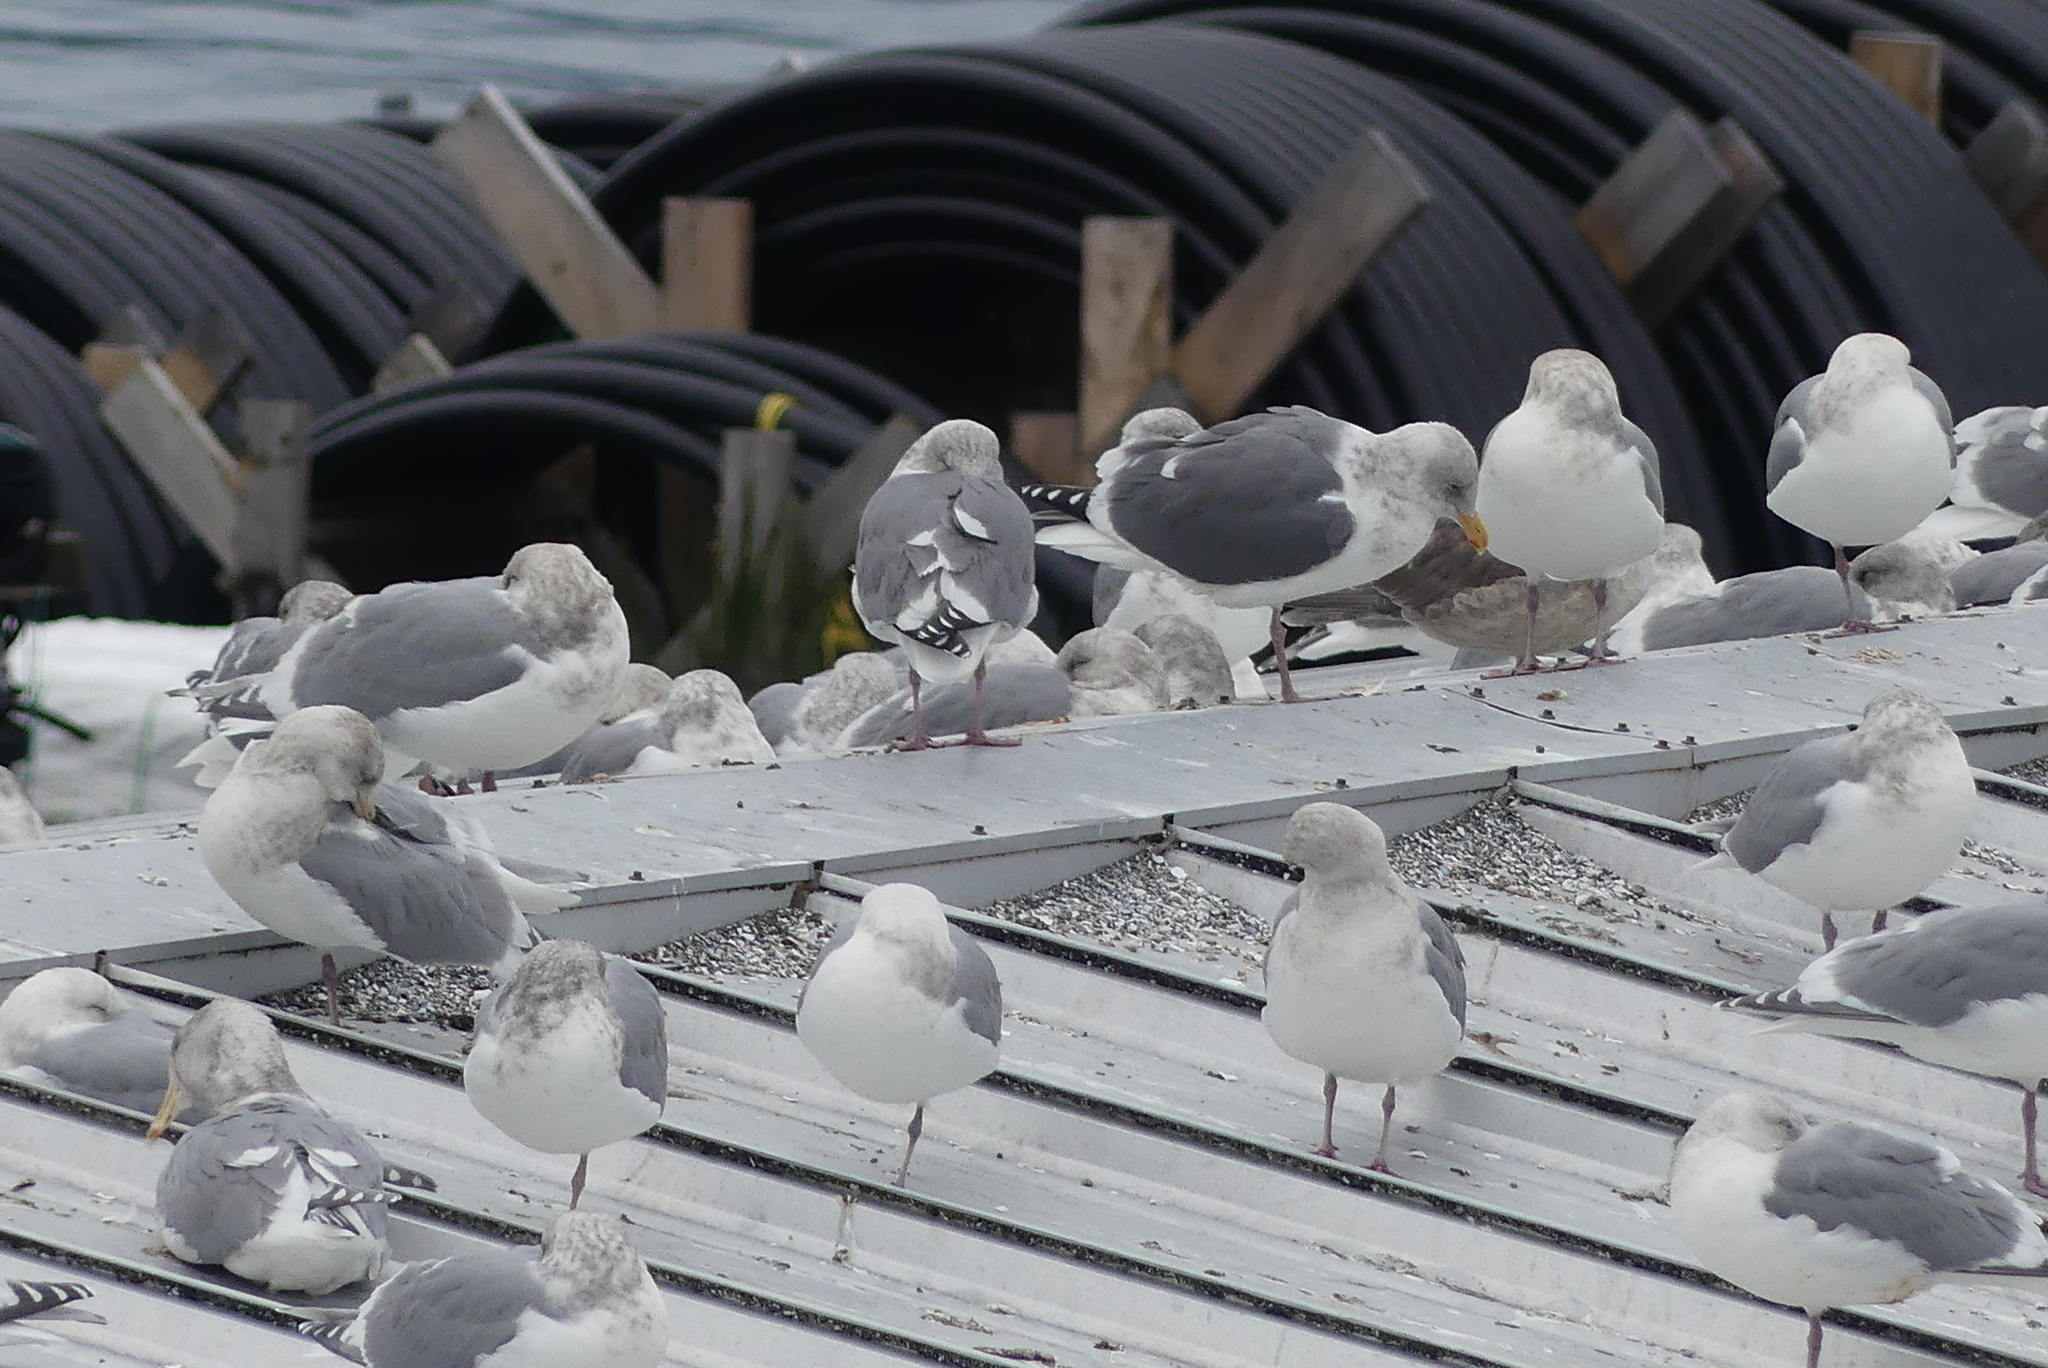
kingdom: Animalia
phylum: Chordata
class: Aves
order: Charadriiformes
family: Laridae
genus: Larus
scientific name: Larus
